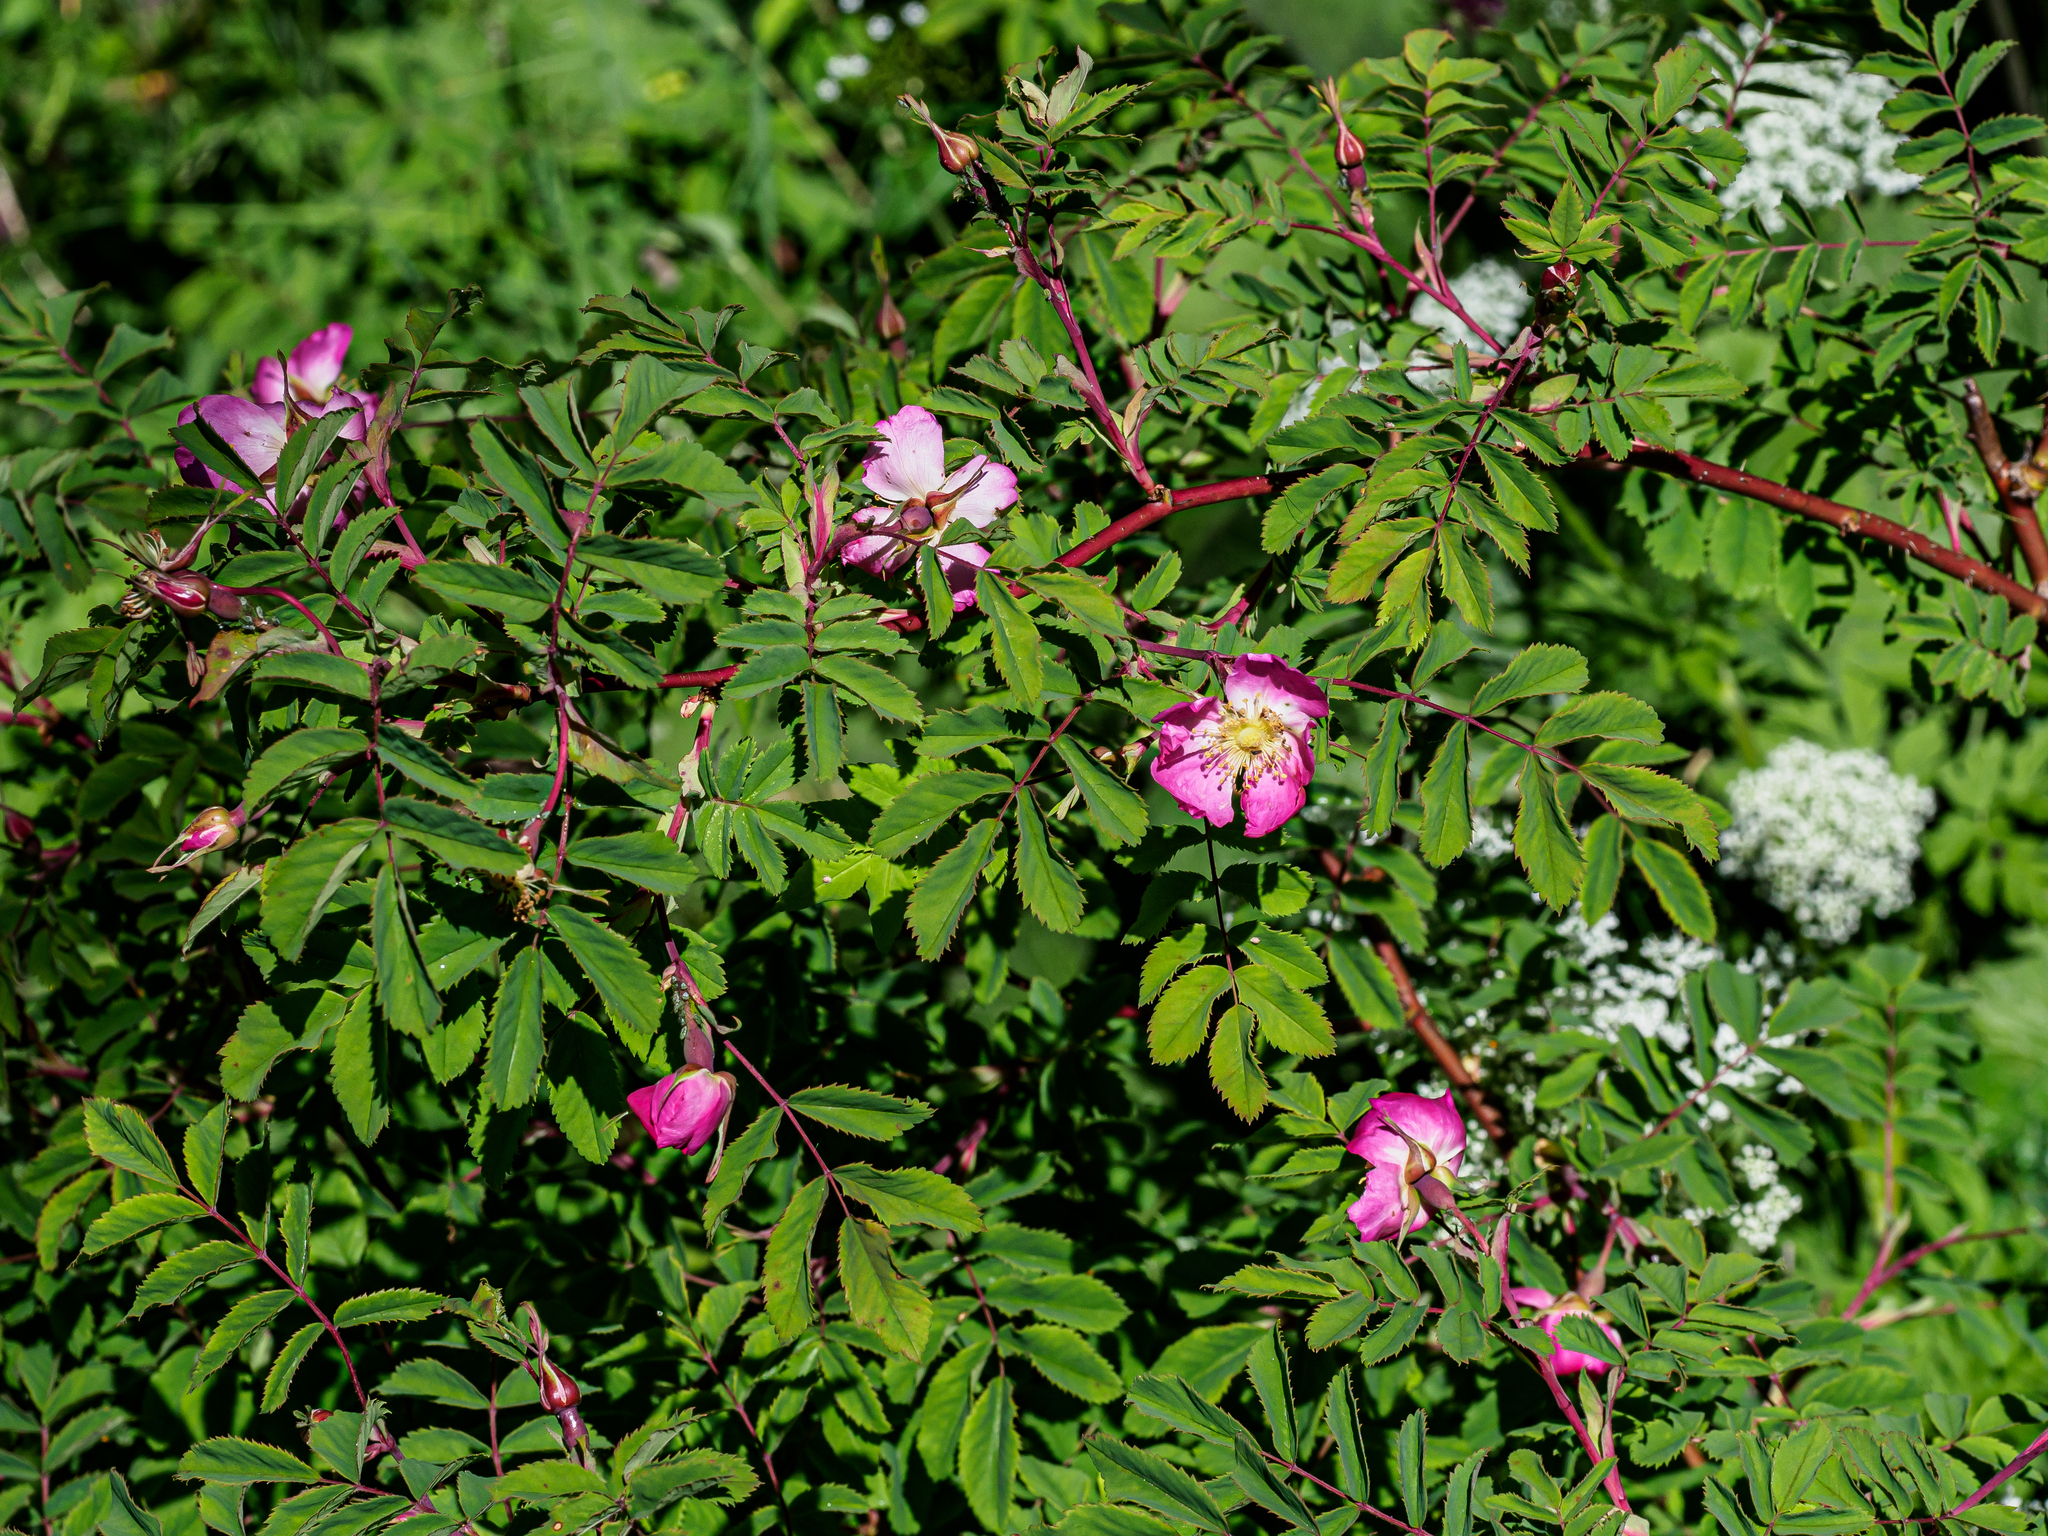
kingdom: Plantae
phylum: Tracheophyta
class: Magnoliopsida
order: Rosales
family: Rosaceae
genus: Rosa
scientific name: Rosa pendulina
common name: Alpine rose
